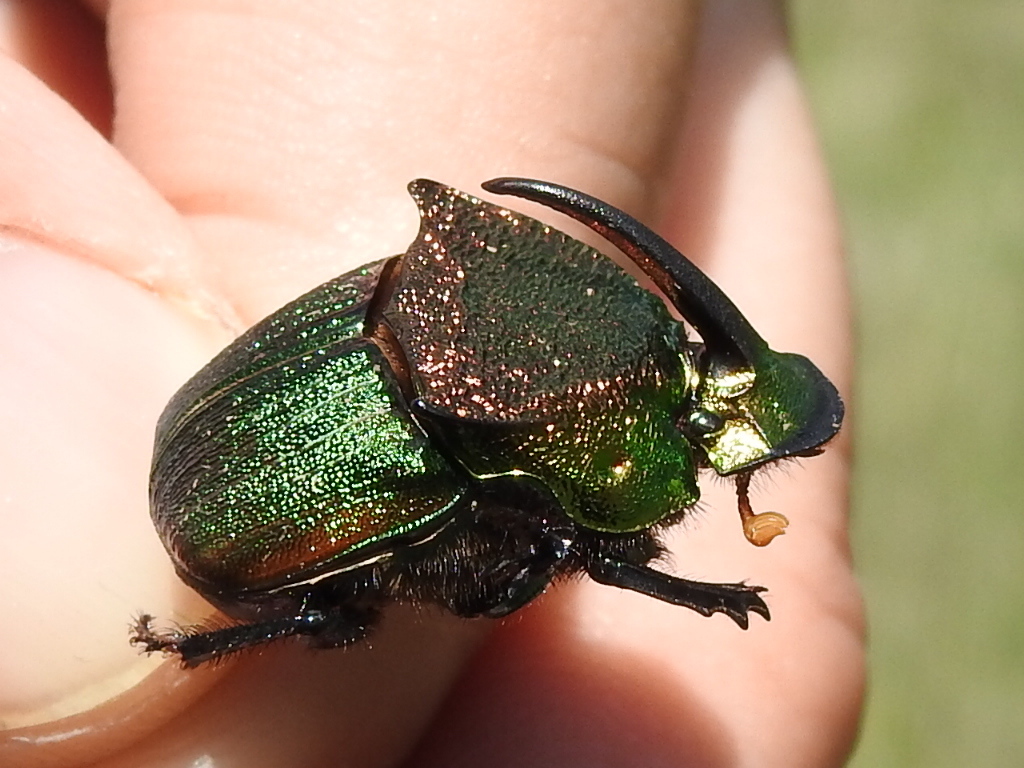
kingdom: Animalia
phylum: Arthropoda
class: Insecta
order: Coleoptera
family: Scarabaeidae
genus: Phanaeus
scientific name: Phanaeus vindex
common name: Rainbow scarab
